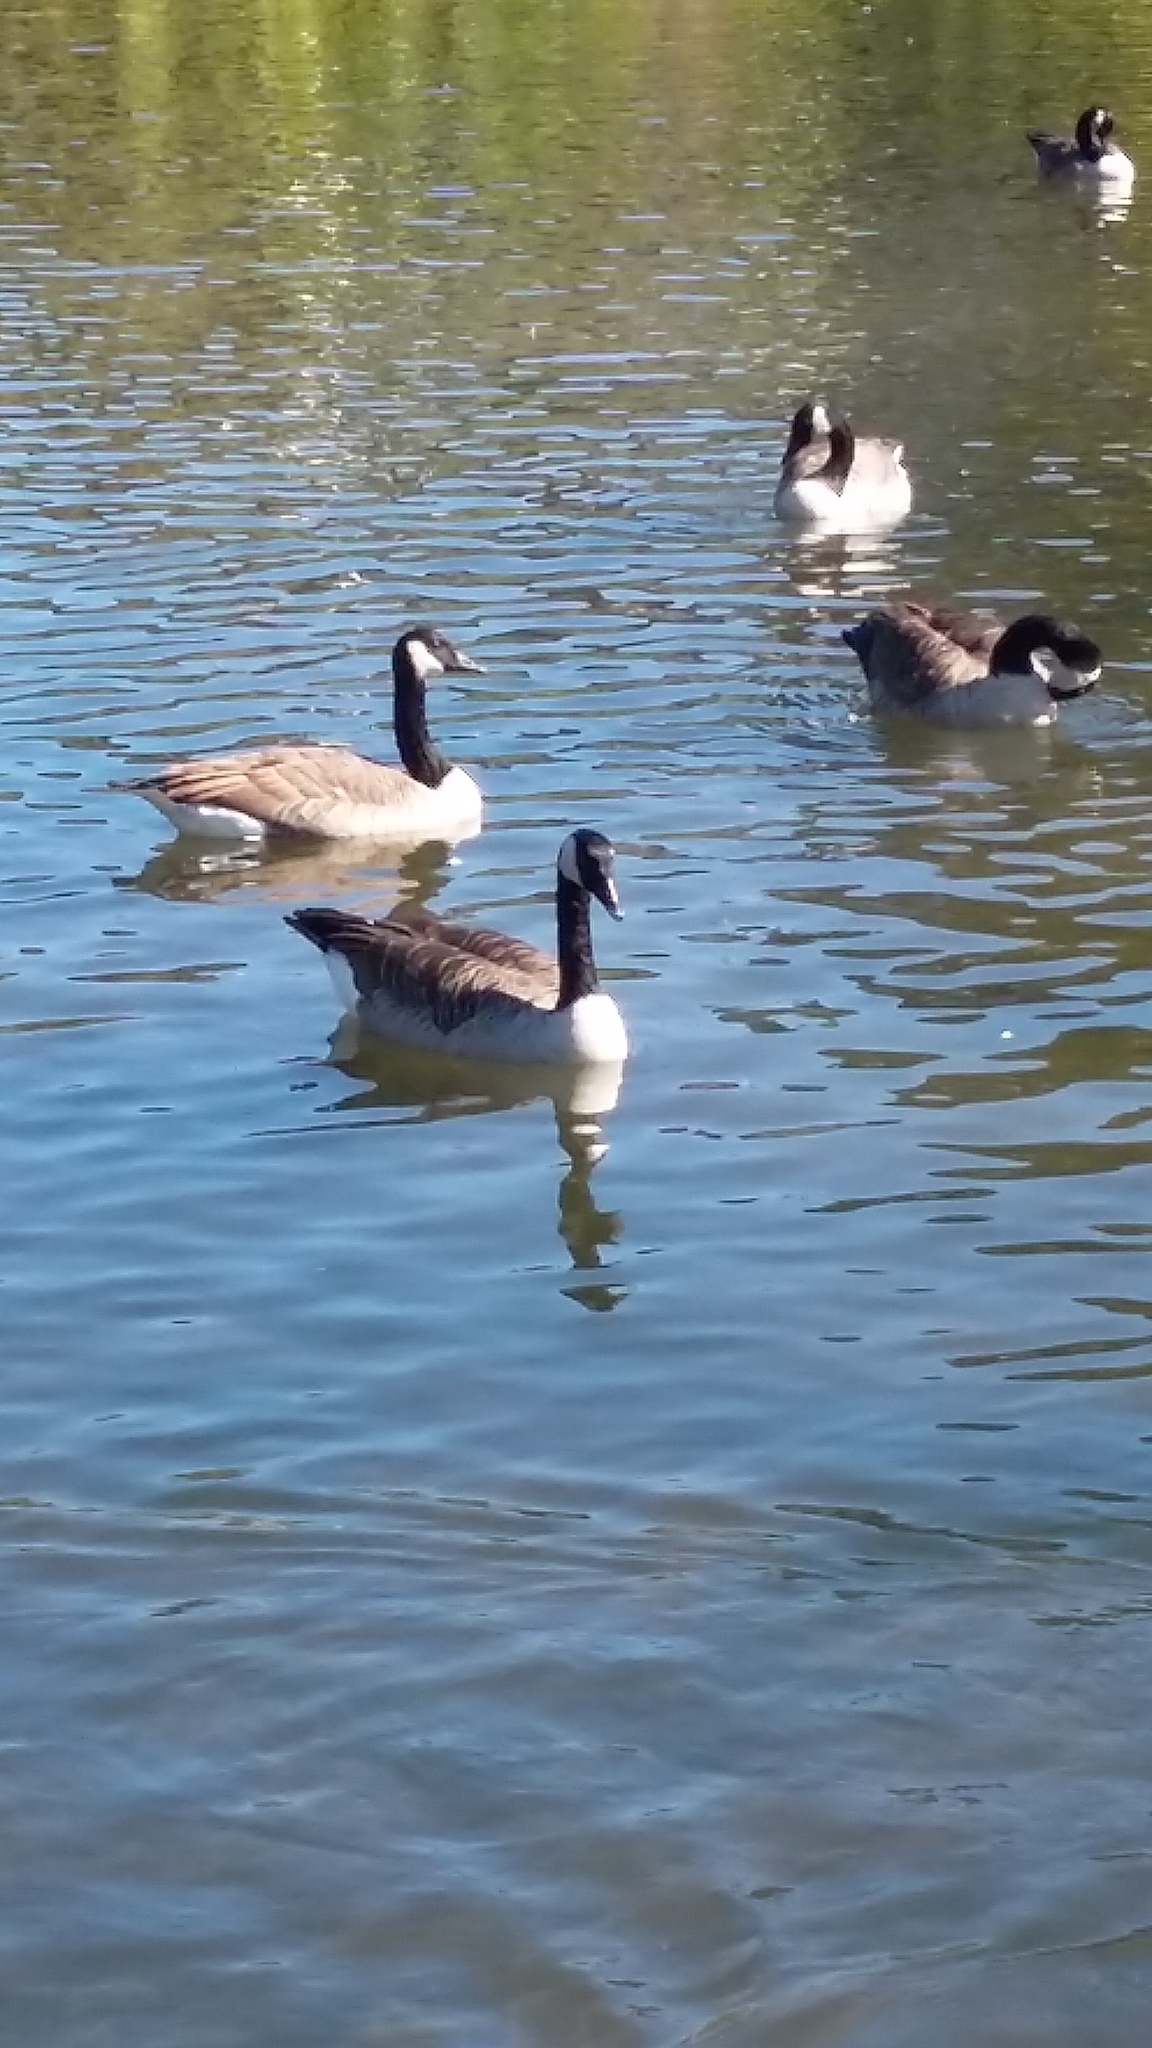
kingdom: Animalia
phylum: Chordata
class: Aves
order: Anseriformes
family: Anatidae
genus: Branta
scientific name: Branta canadensis
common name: Canada goose
